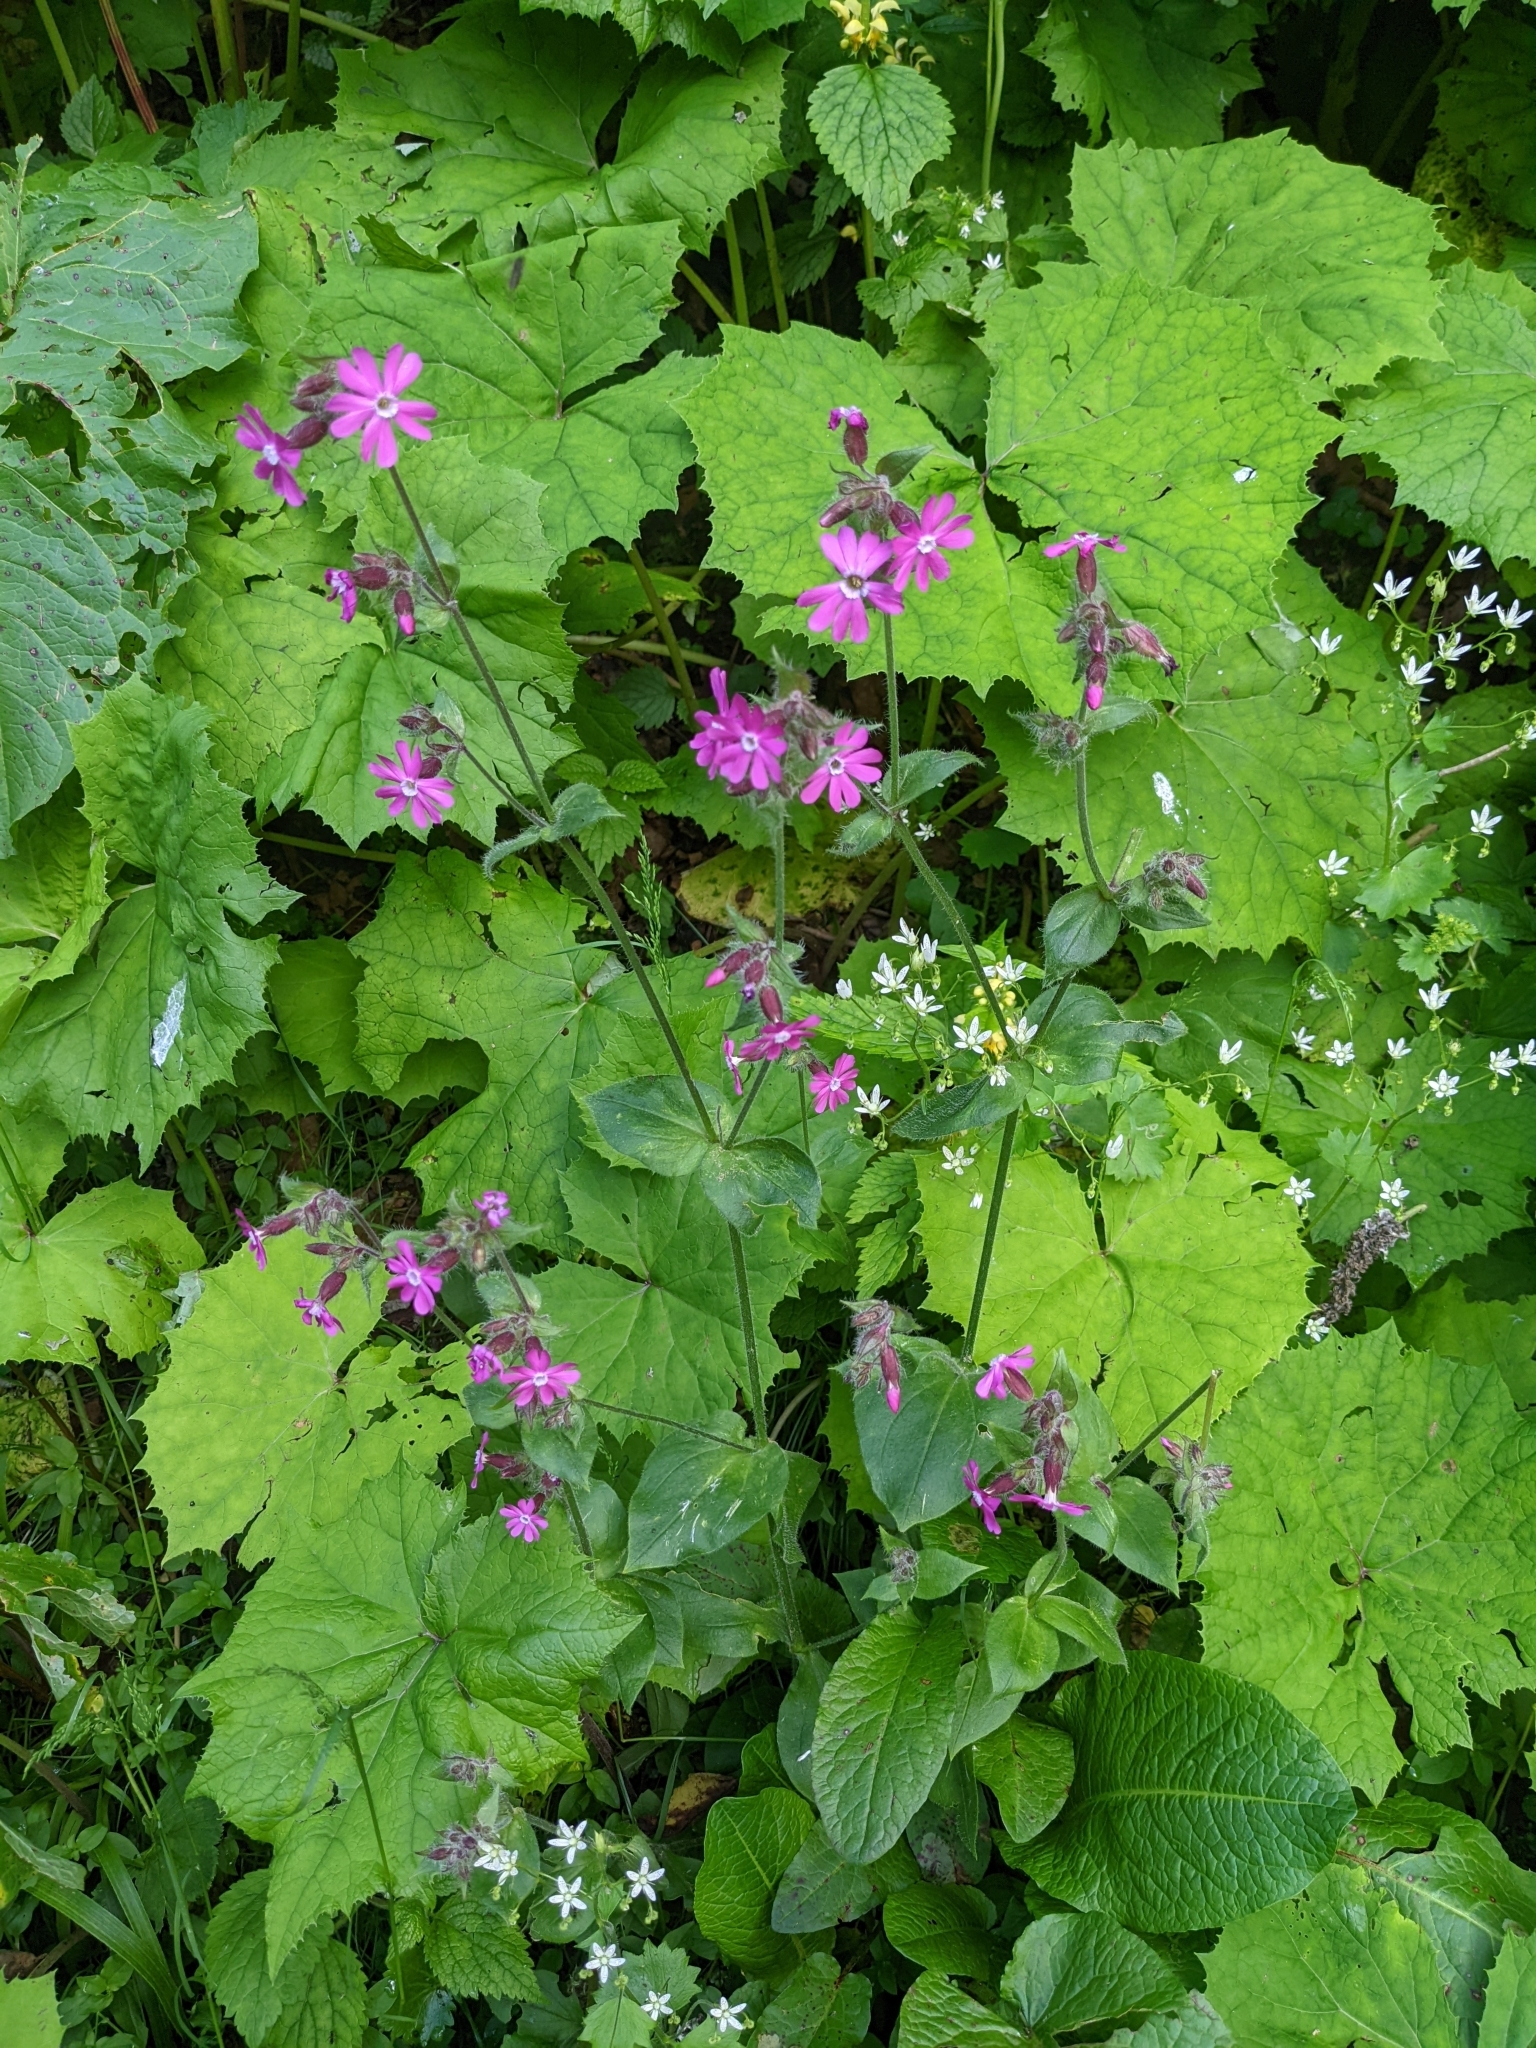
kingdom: Plantae
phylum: Tracheophyta
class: Magnoliopsida
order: Caryophyllales
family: Caryophyllaceae
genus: Silene
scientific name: Silene dioica
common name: Red campion
